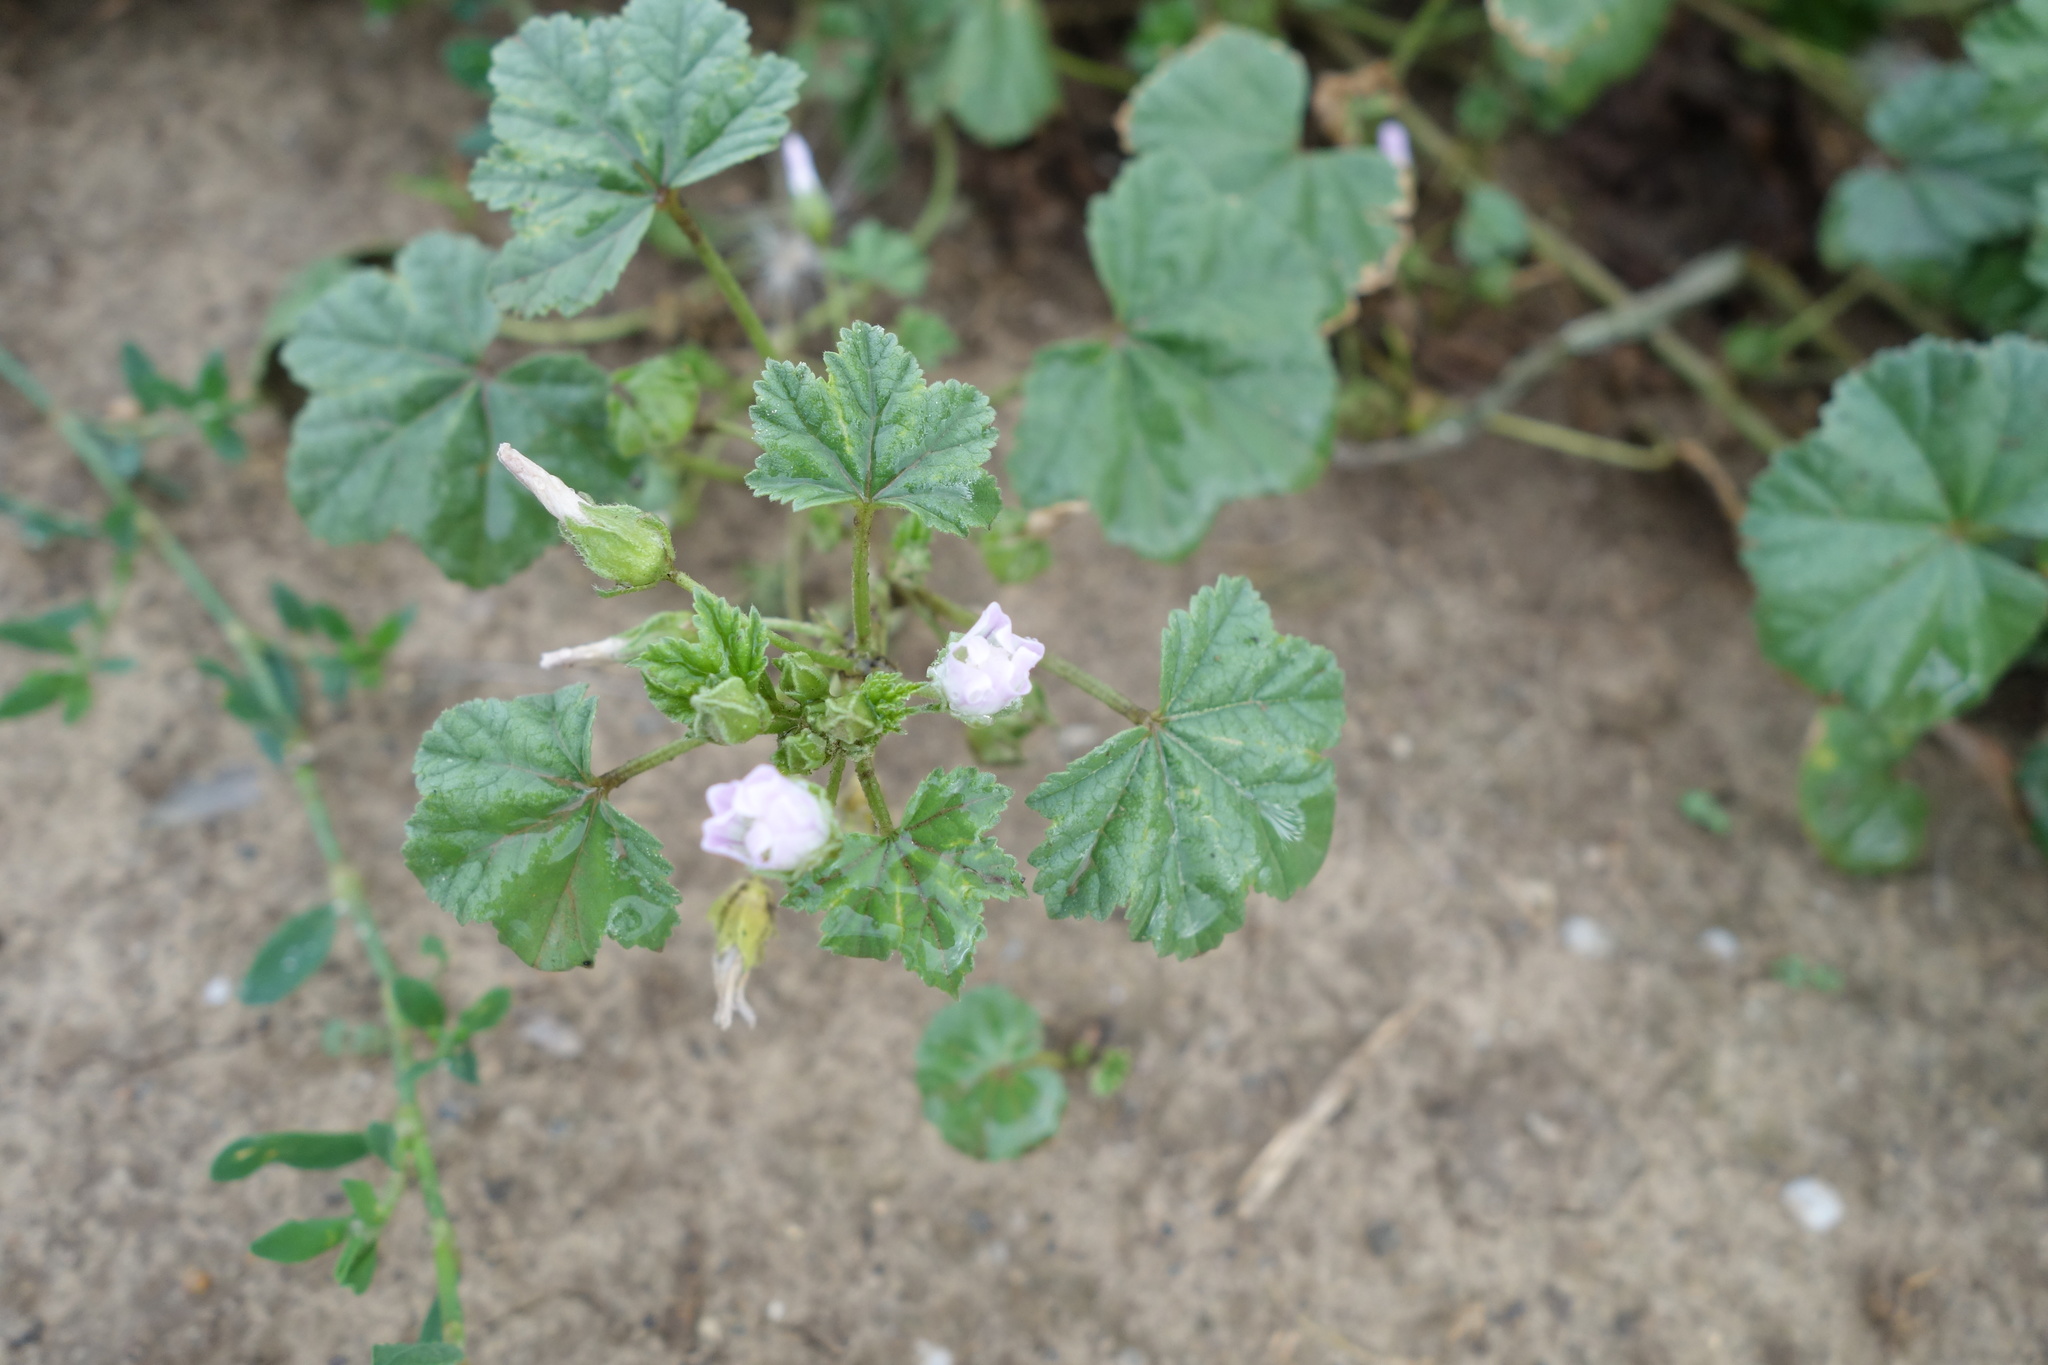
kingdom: Plantae
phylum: Tracheophyta
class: Magnoliopsida
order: Malvales
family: Malvaceae
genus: Malva
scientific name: Malva neglecta
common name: Common mallow
